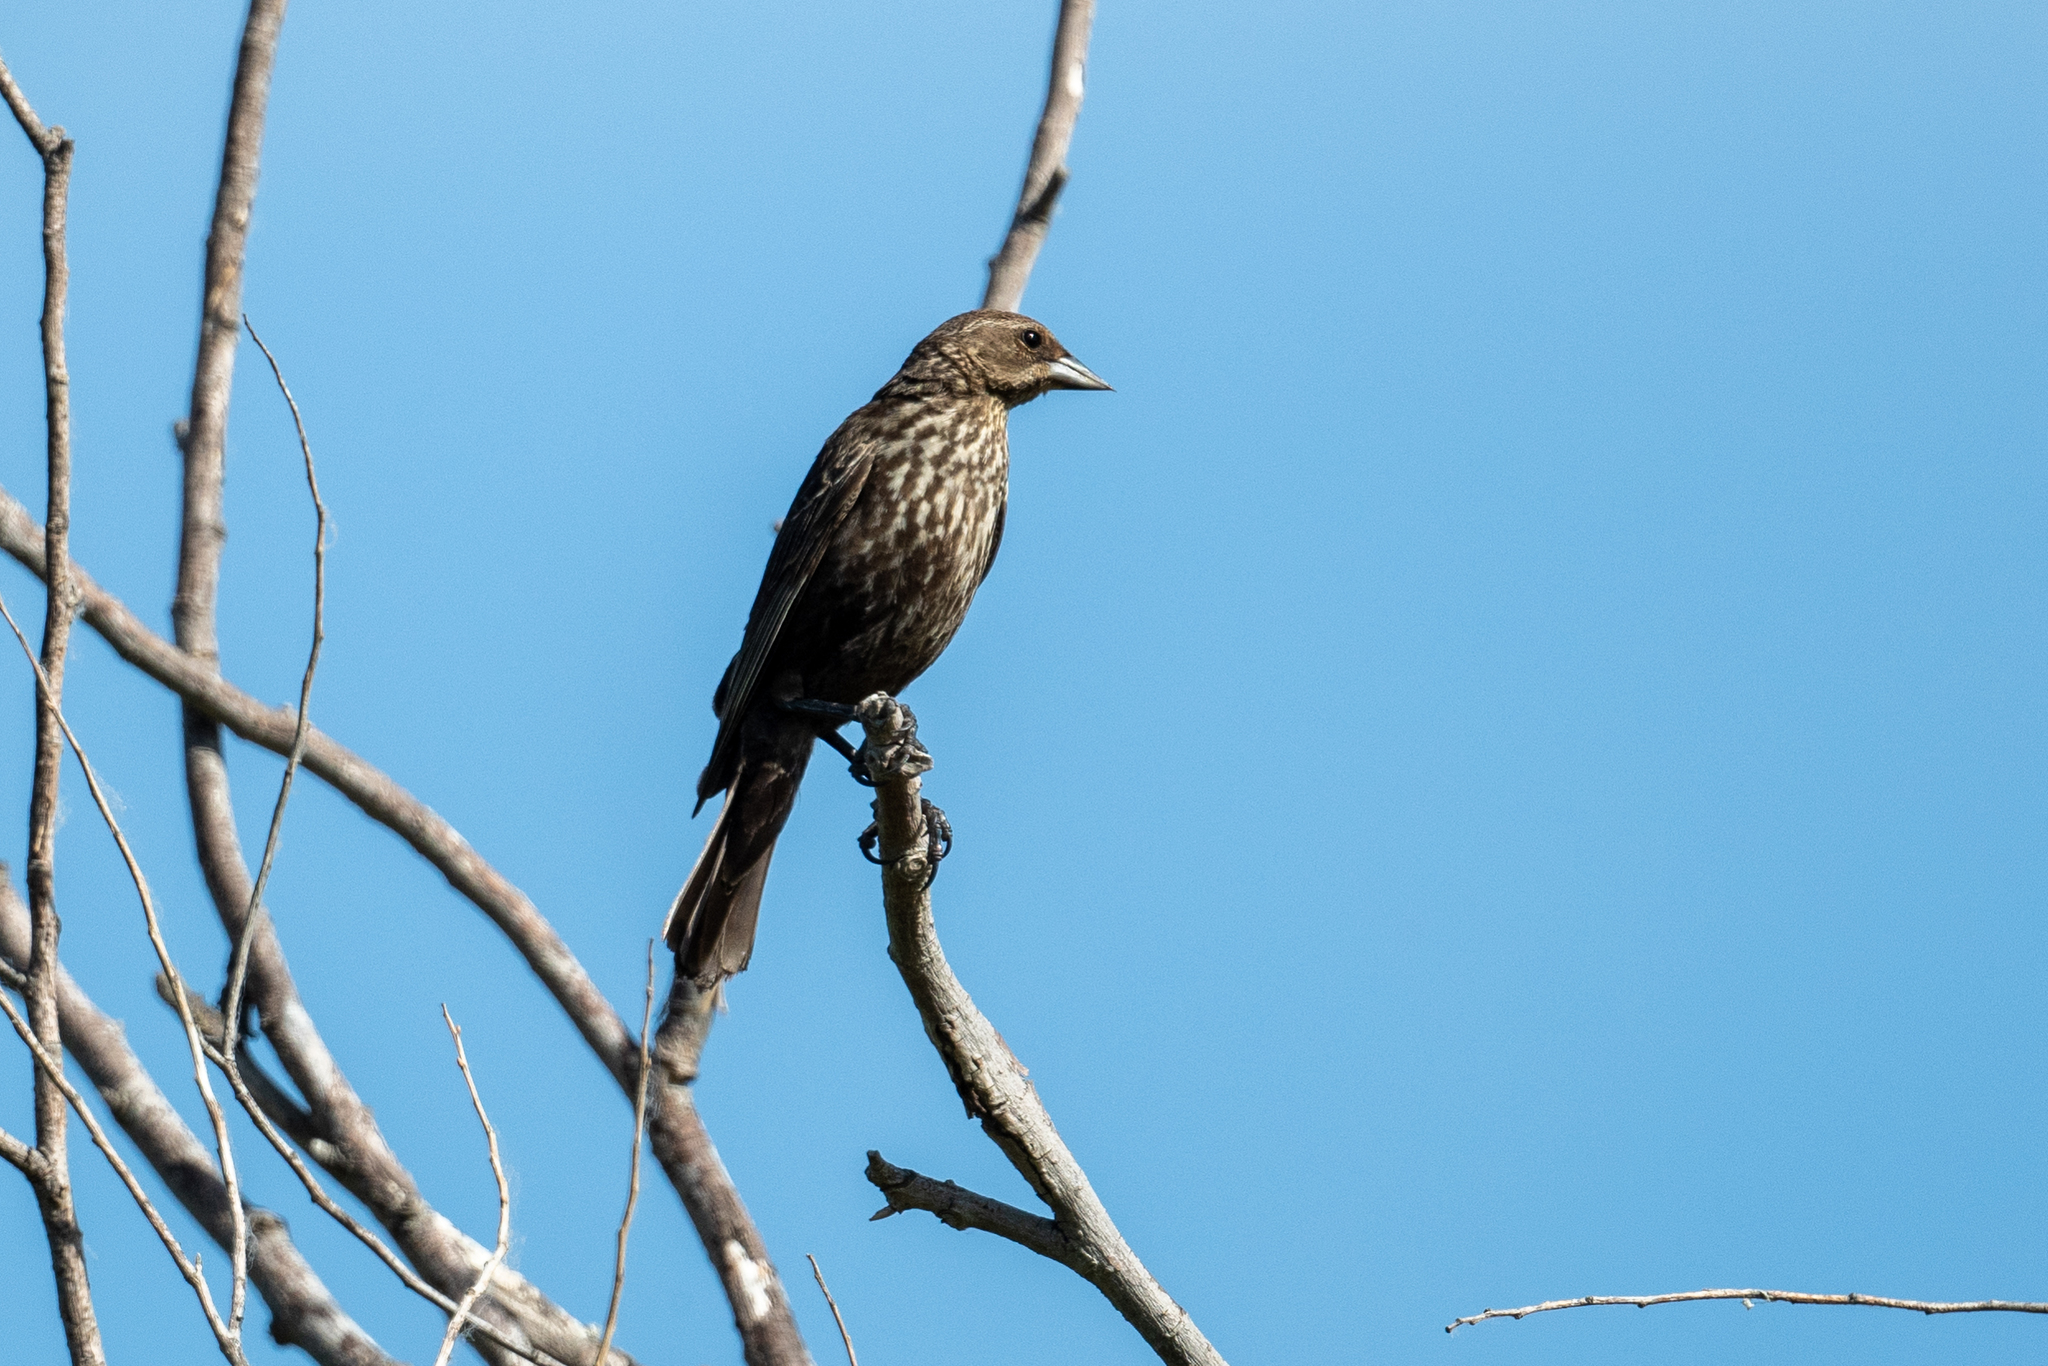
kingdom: Animalia
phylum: Chordata
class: Aves
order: Passeriformes
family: Icteridae
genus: Agelaius
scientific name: Agelaius phoeniceus
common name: Red-winged blackbird
